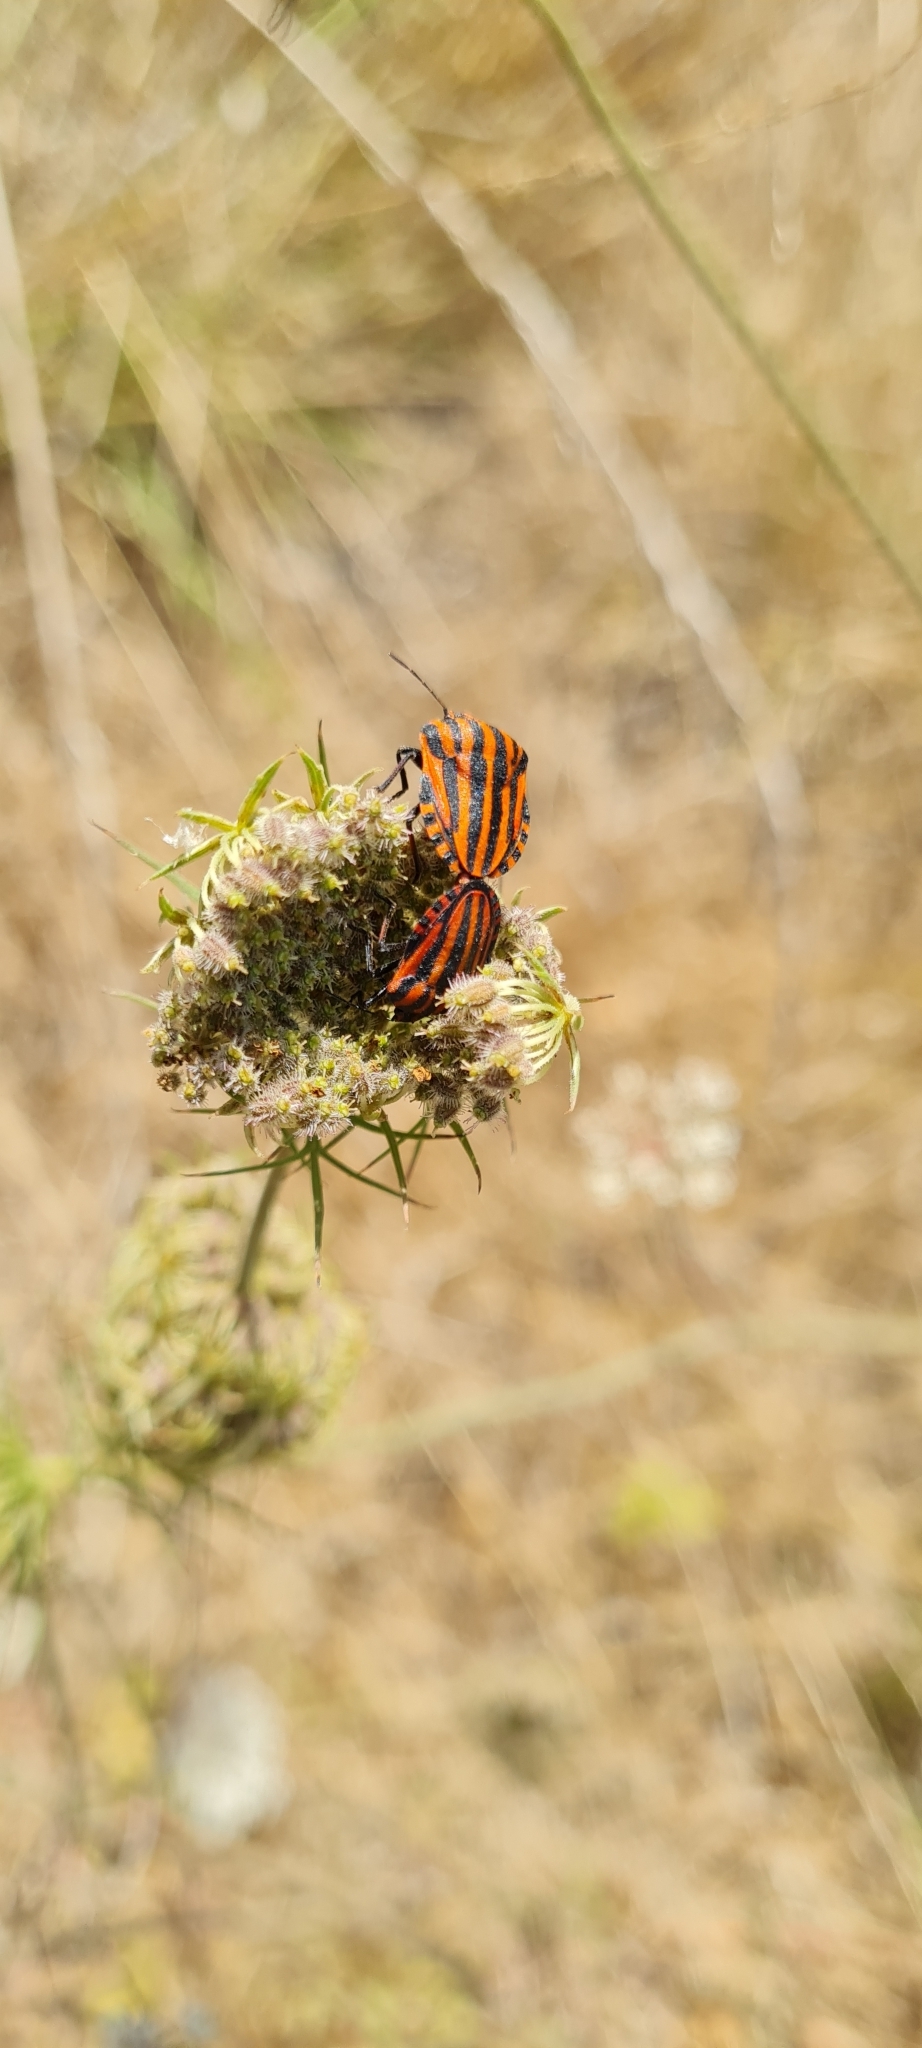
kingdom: Animalia
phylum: Arthropoda
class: Insecta
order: Hemiptera
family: Pentatomidae
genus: Graphosoma
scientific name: Graphosoma italicum
